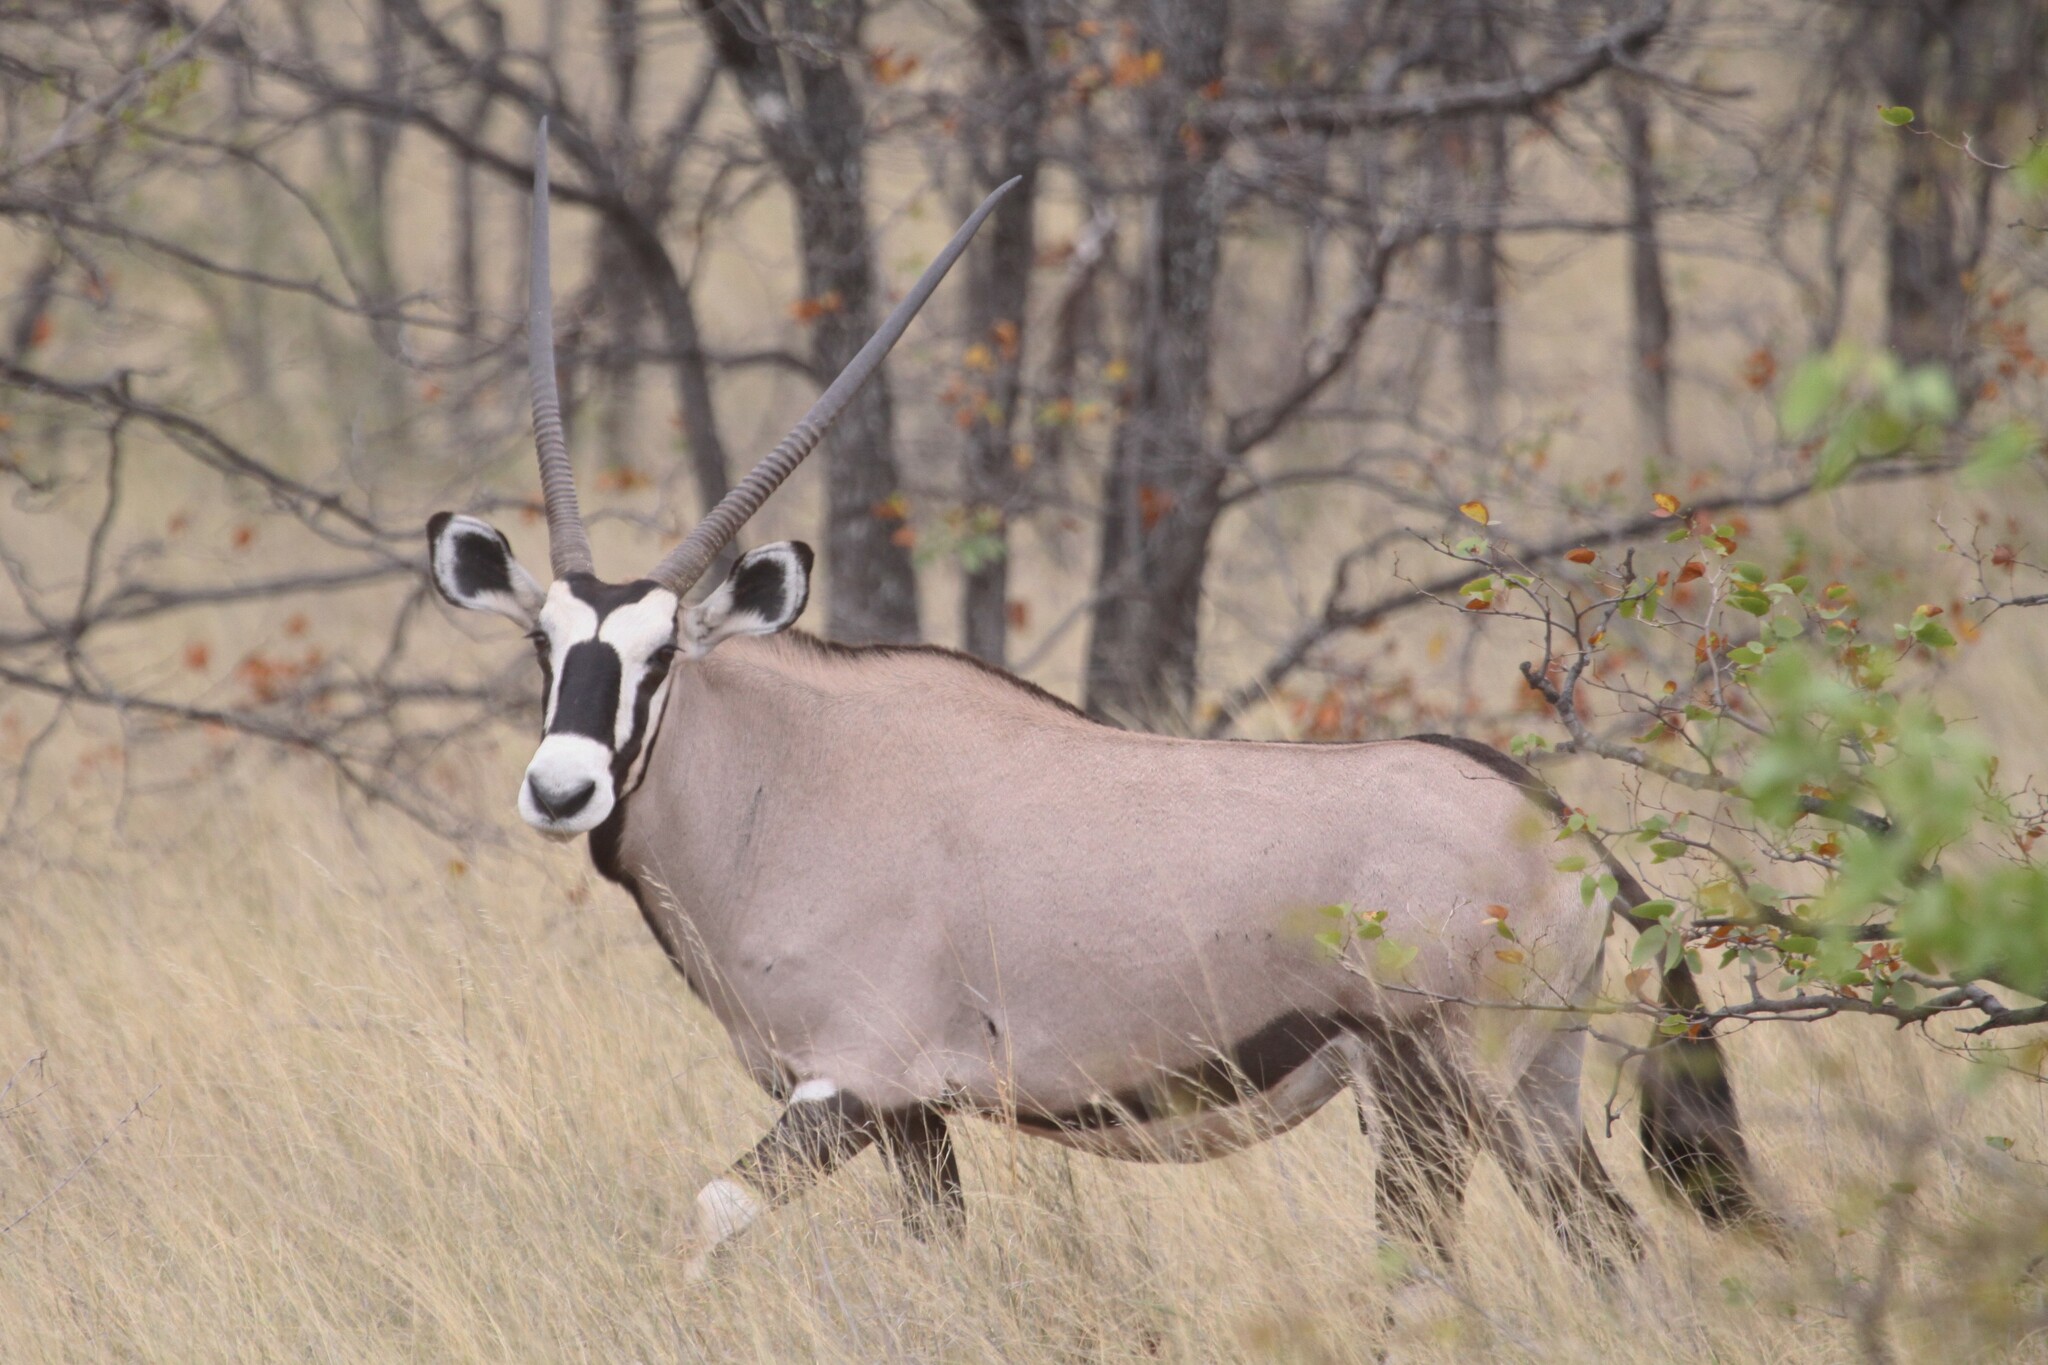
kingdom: Animalia
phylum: Chordata
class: Mammalia
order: Artiodactyla
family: Bovidae
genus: Oryx
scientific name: Oryx gazella
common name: Gemsbok
